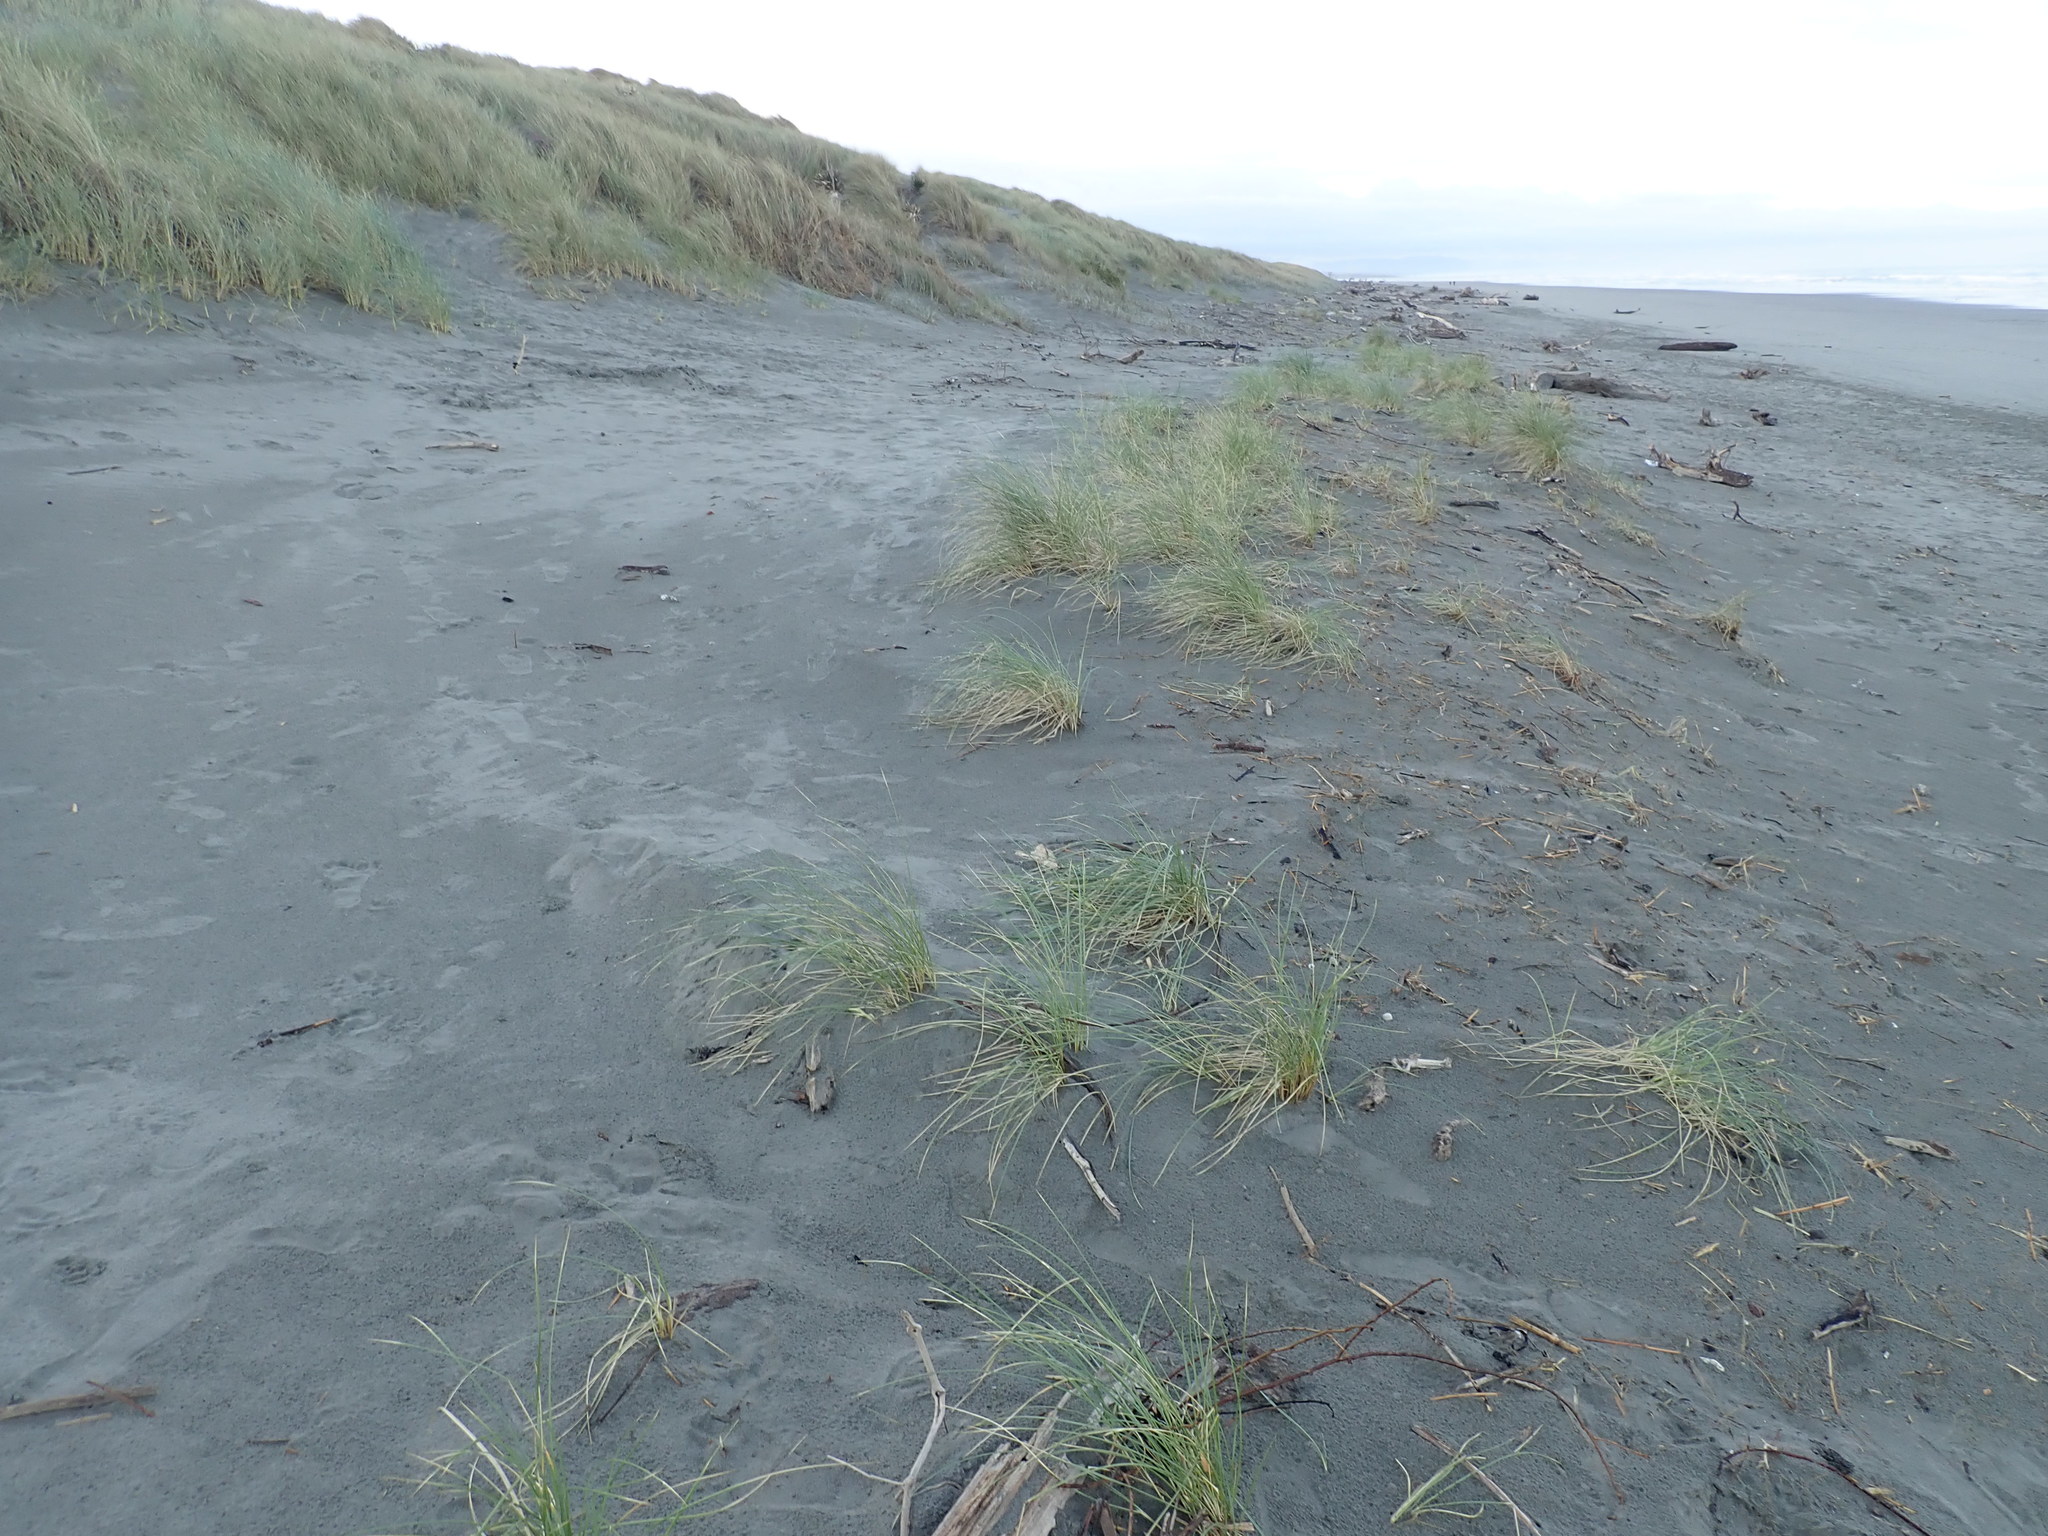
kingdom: Plantae
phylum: Tracheophyta
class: Liliopsida
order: Poales
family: Poaceae
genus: Calamagrostis
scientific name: Calamagrostis arenaria
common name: European beachgrass
